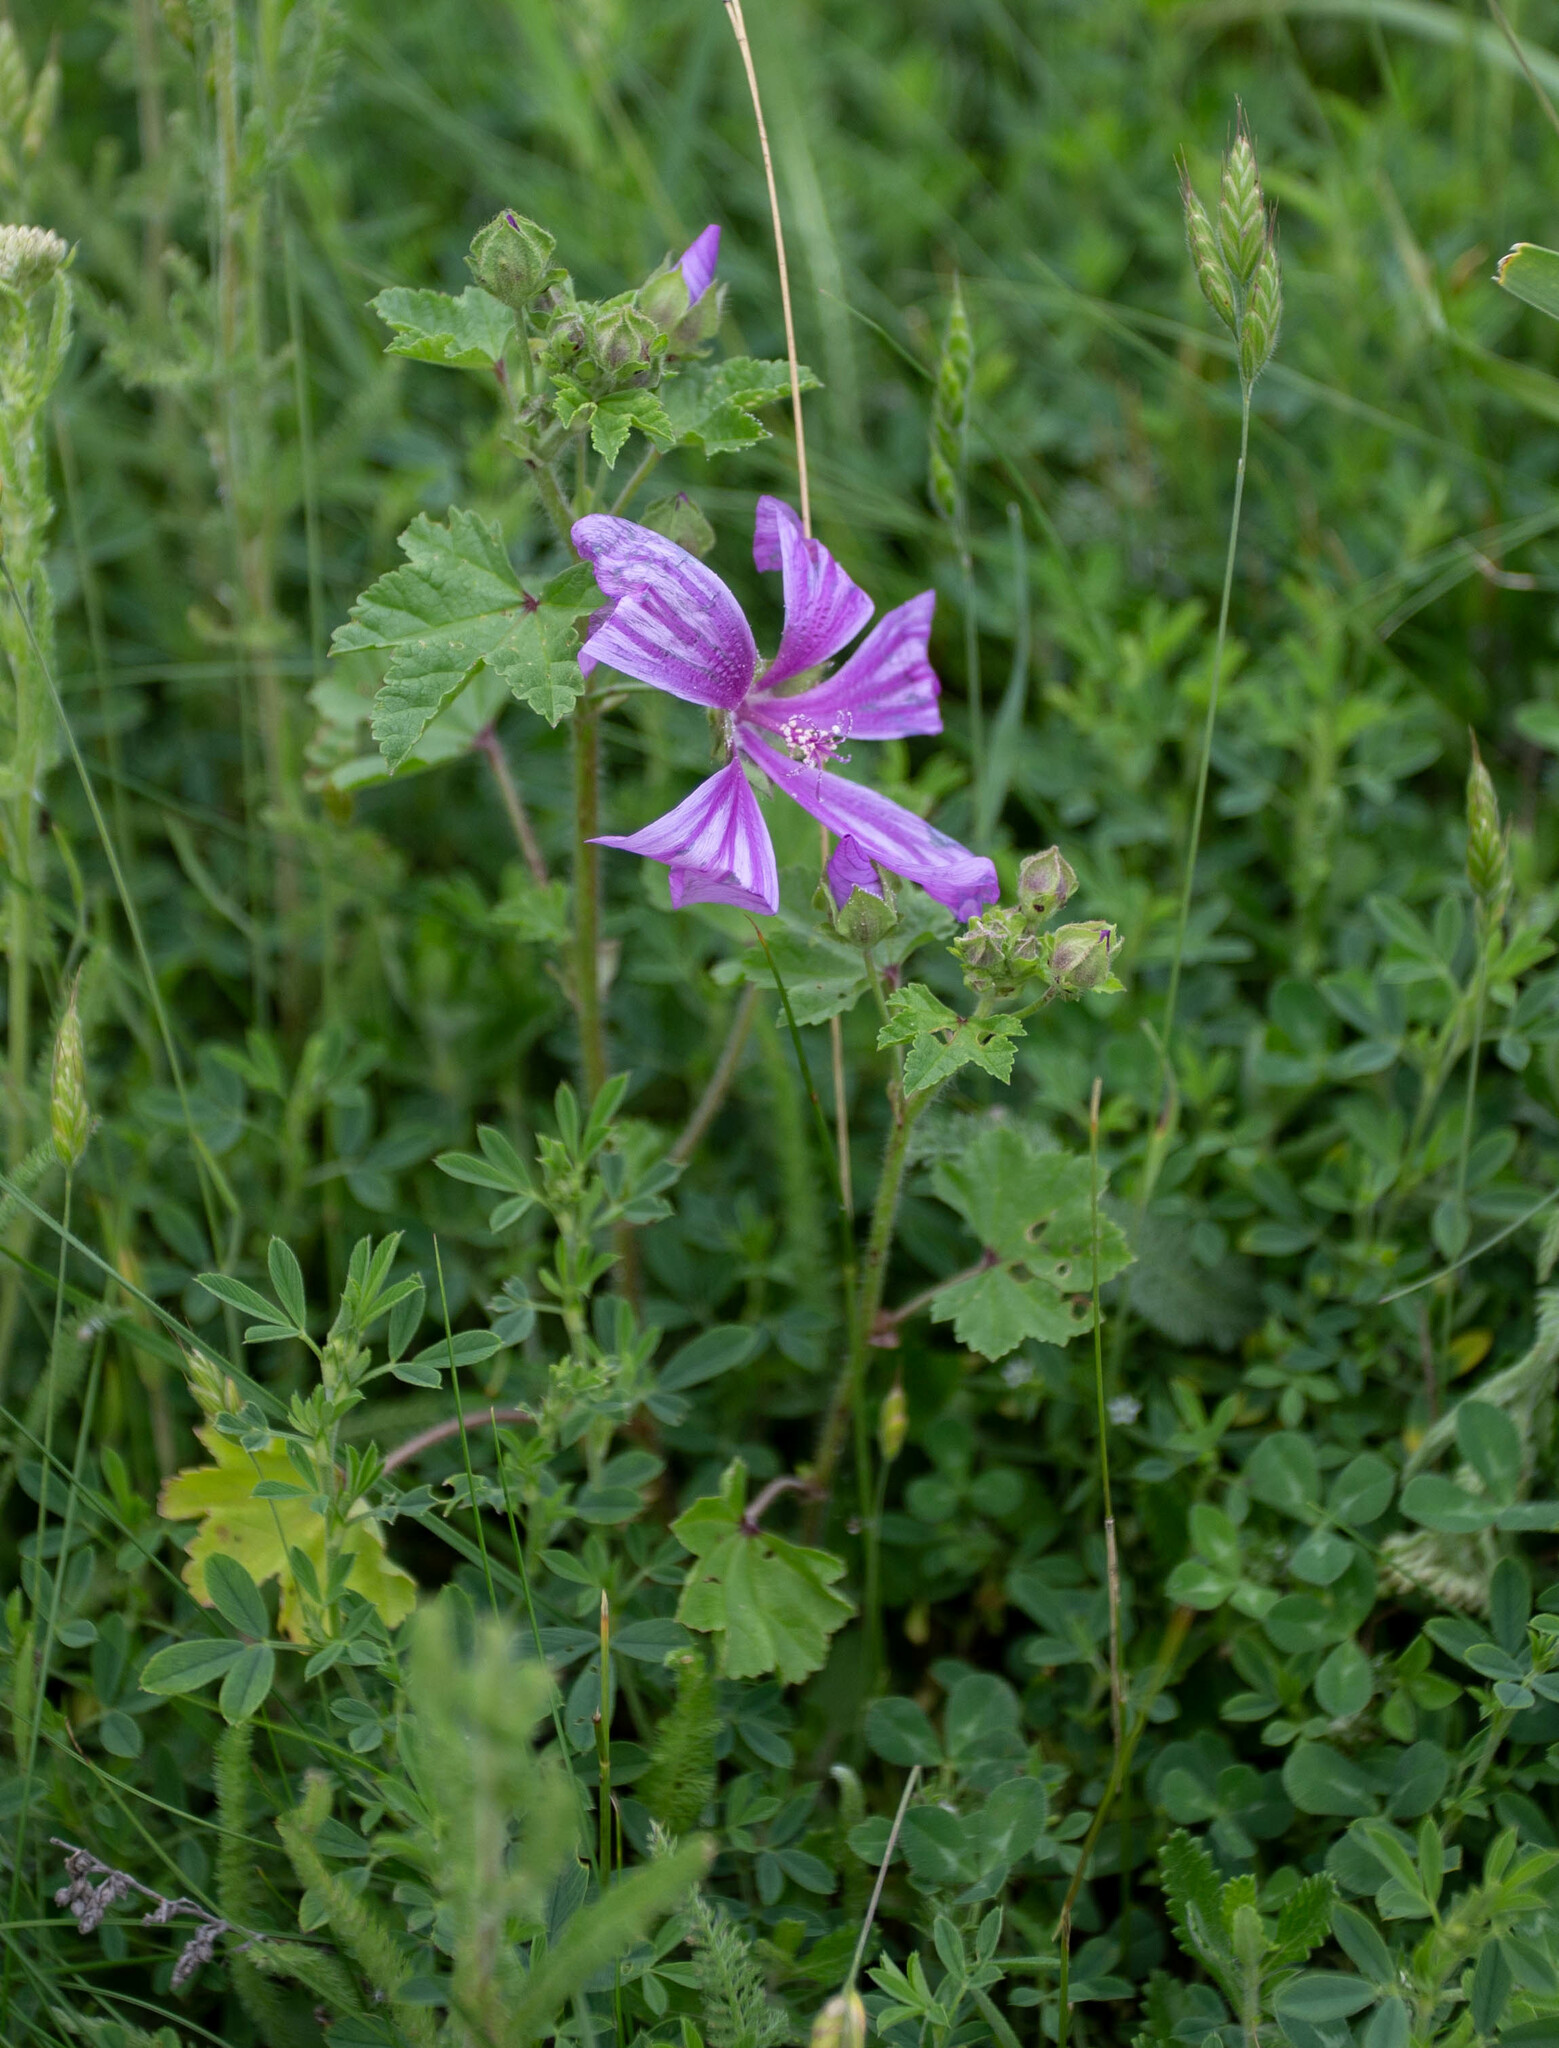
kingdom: Plantae
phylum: Tracheophyta
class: Magnoliopsida
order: Malvales
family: Malvaceae
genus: Malva
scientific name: Malva sylvestris
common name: Common mallow
